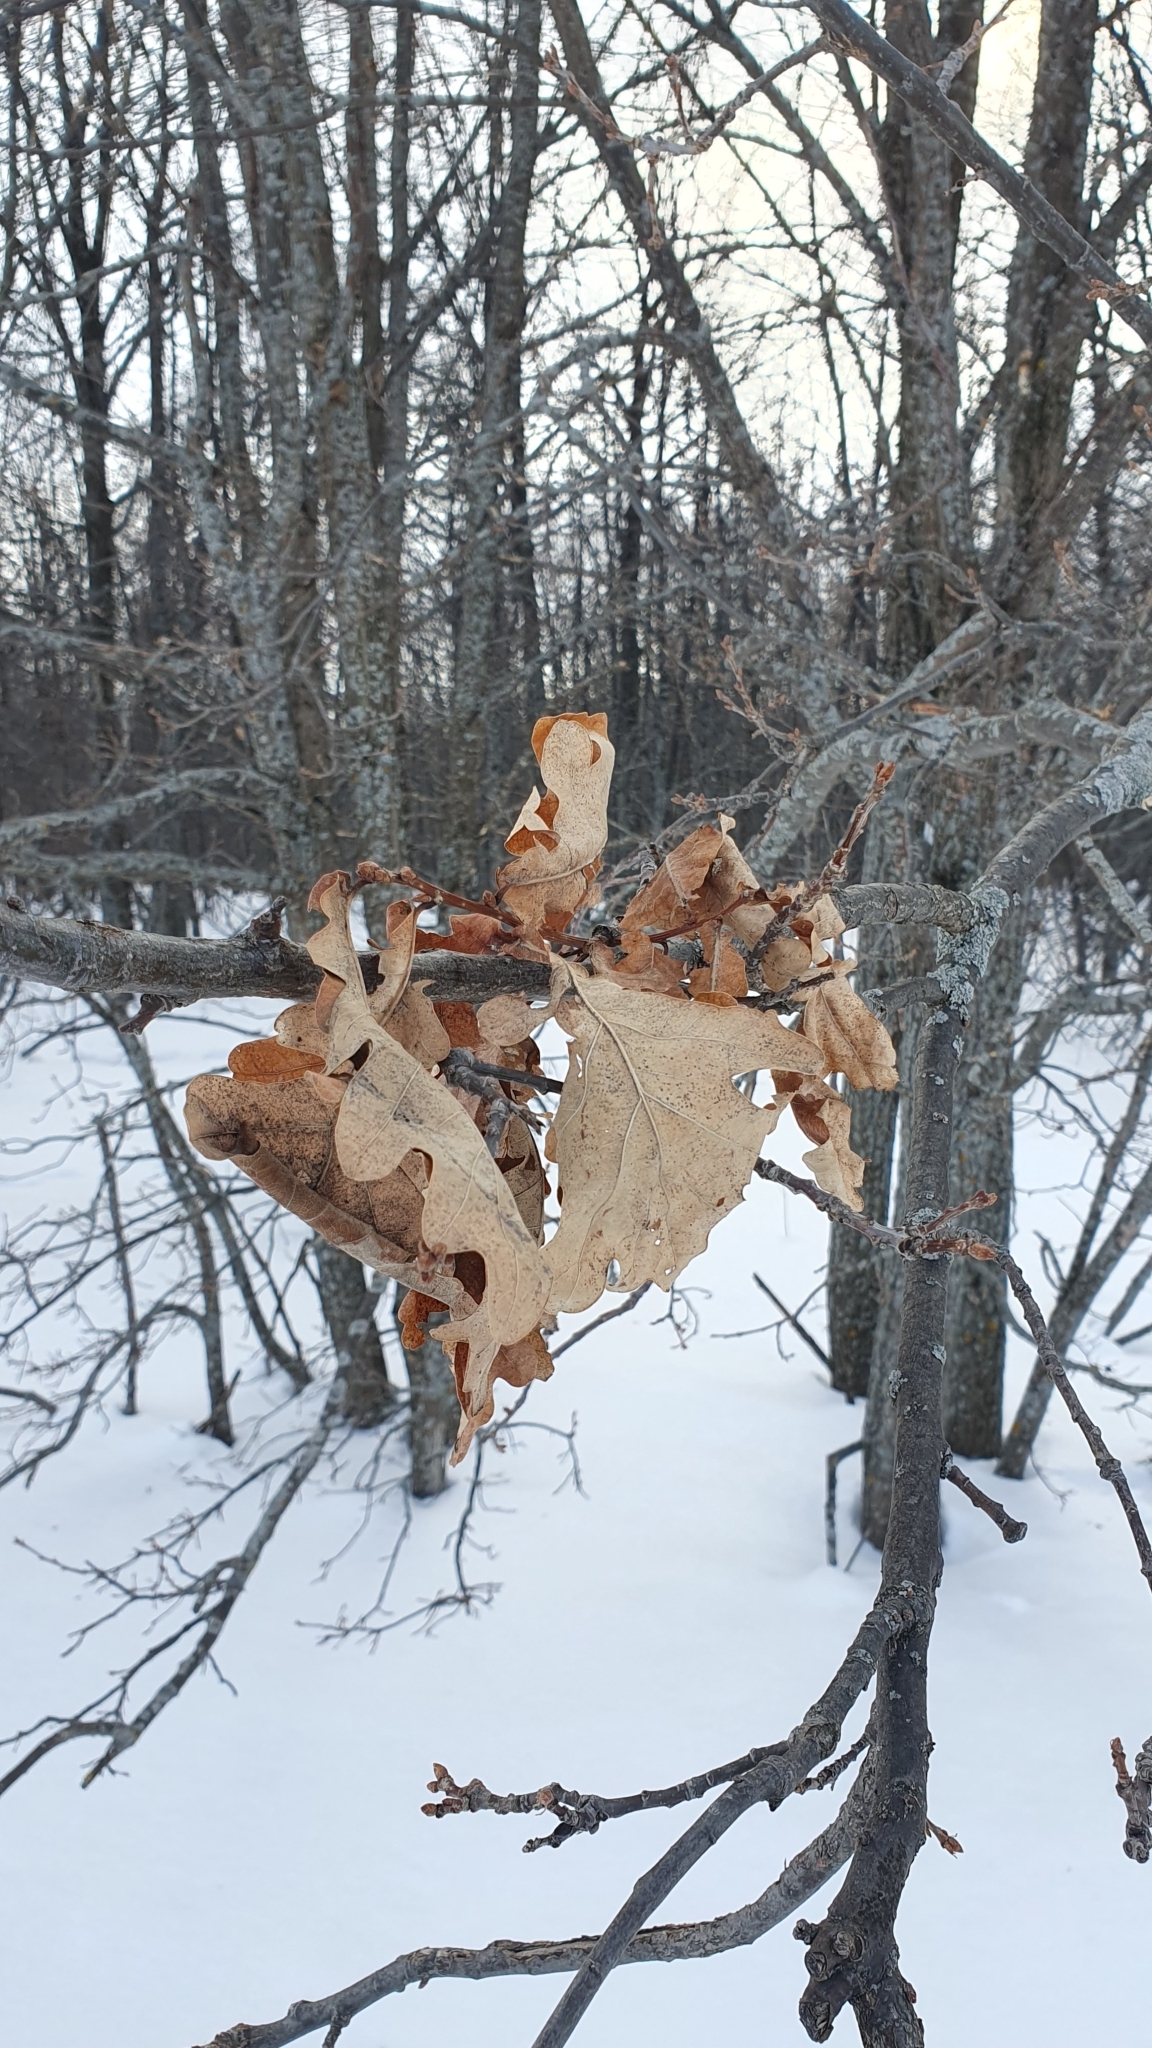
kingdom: Plantae
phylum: Tracheophyta
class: Magnoliopsida
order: Fagales
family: Fagaceae
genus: Quercus
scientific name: Quercus robur
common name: Pedunculate oak
